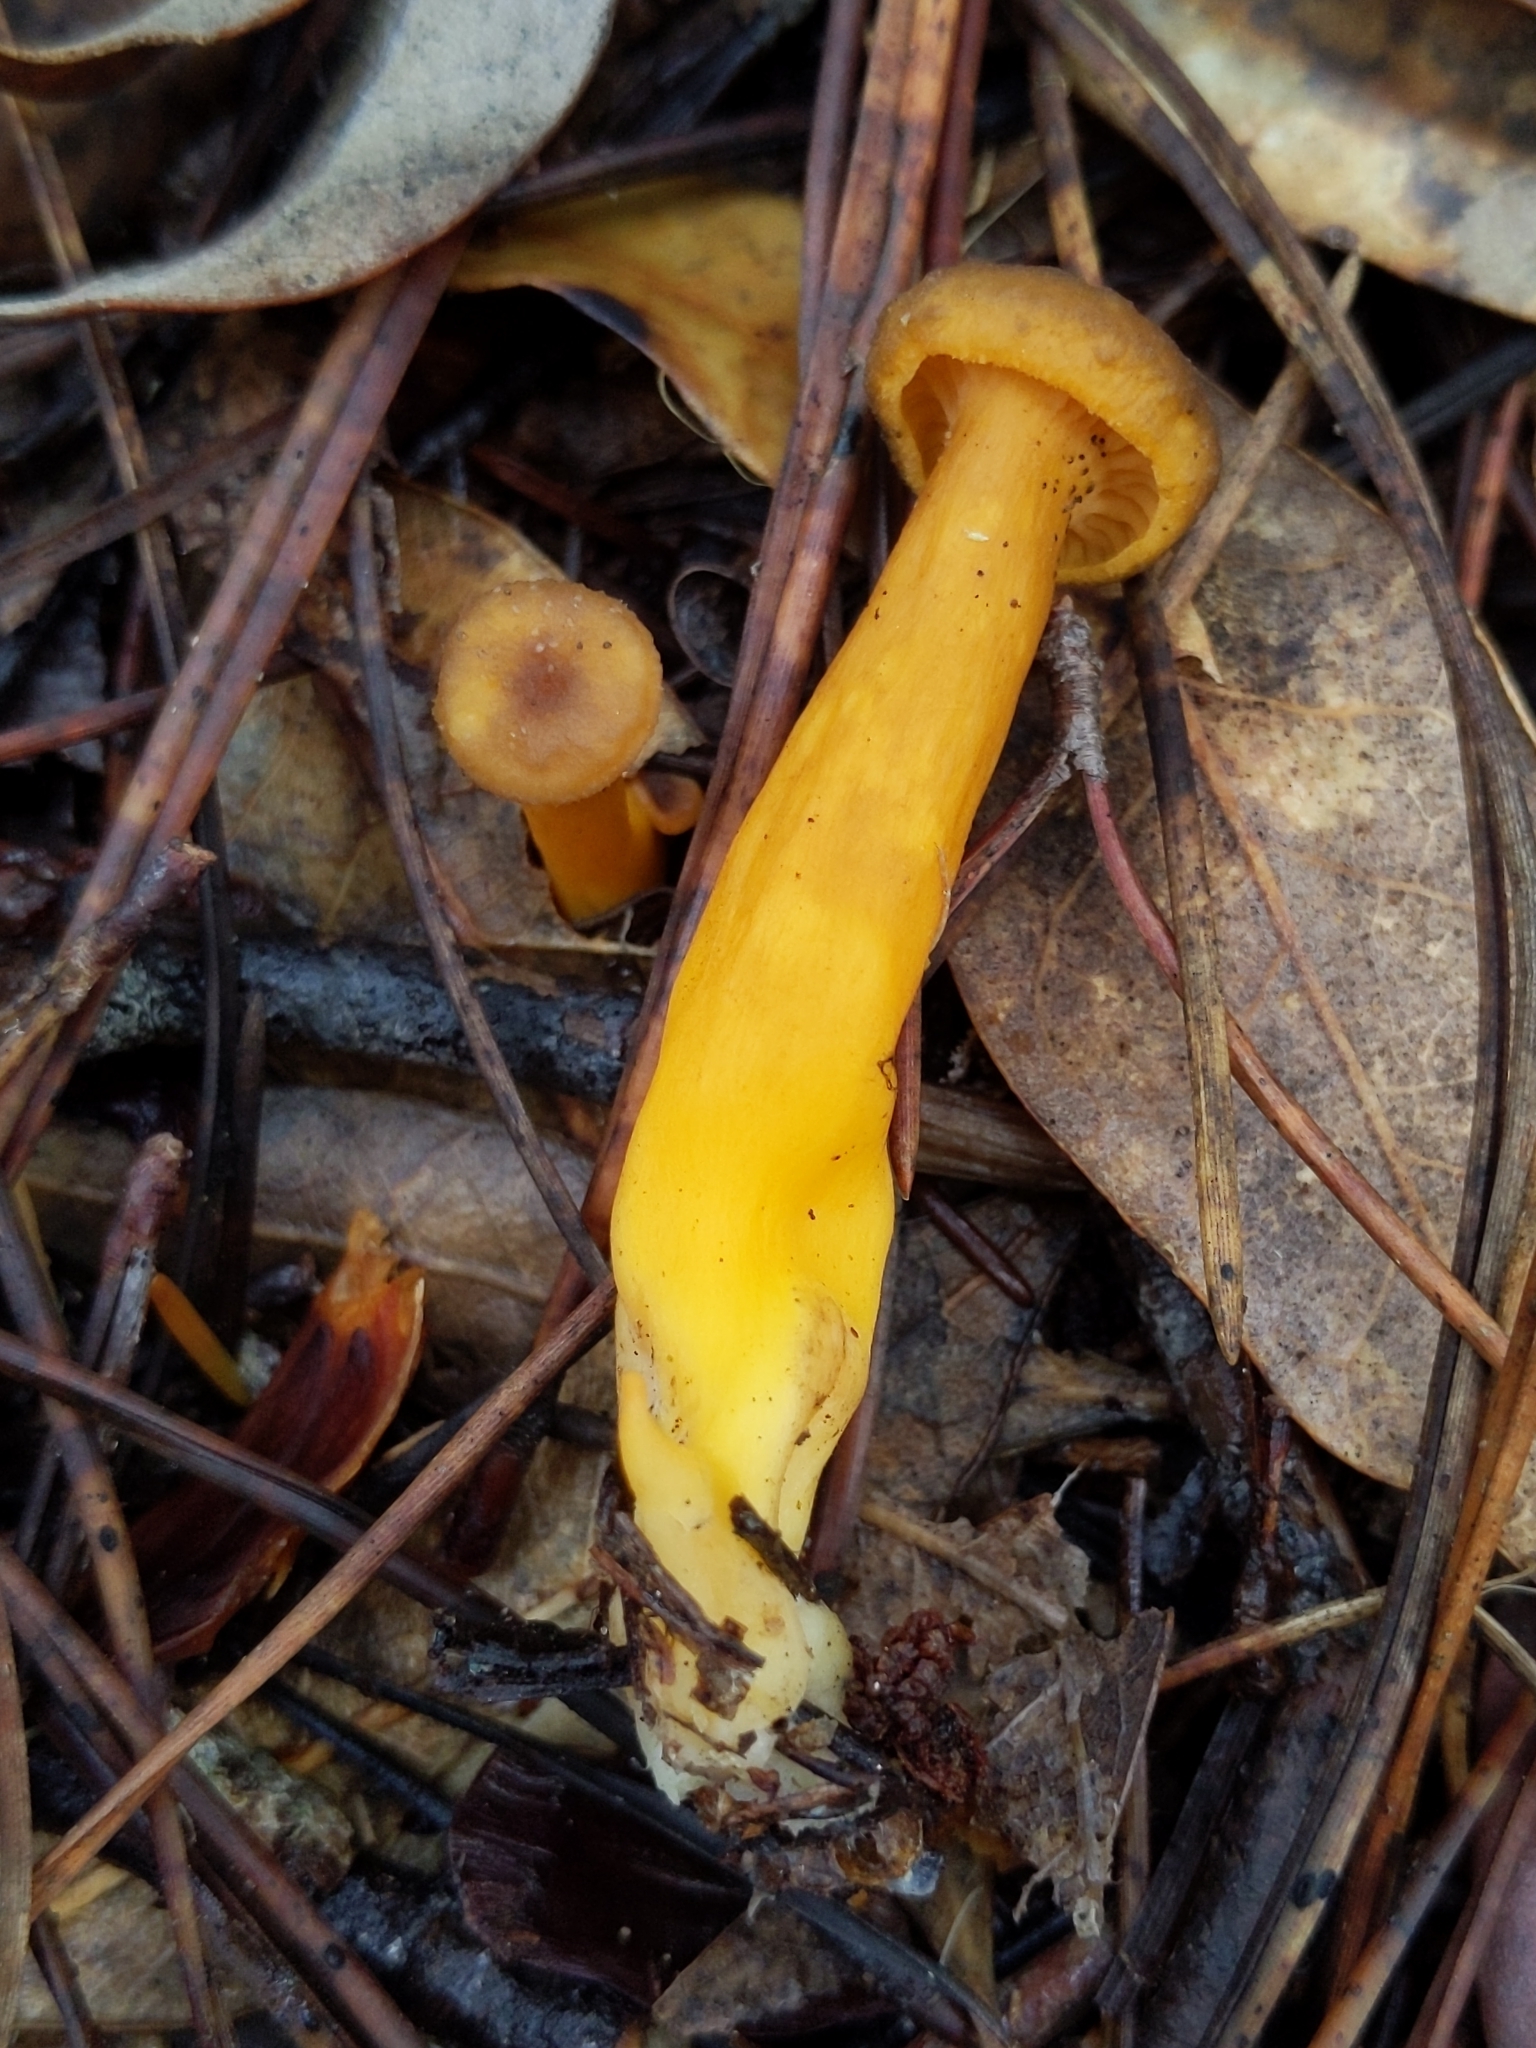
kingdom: Fungi
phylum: Basidiomycota
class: Agaricomycetes
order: Cantharellales
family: Hydnaceae
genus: Craterellus
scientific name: Craterellus tubaeformis
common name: Yellowfoot
